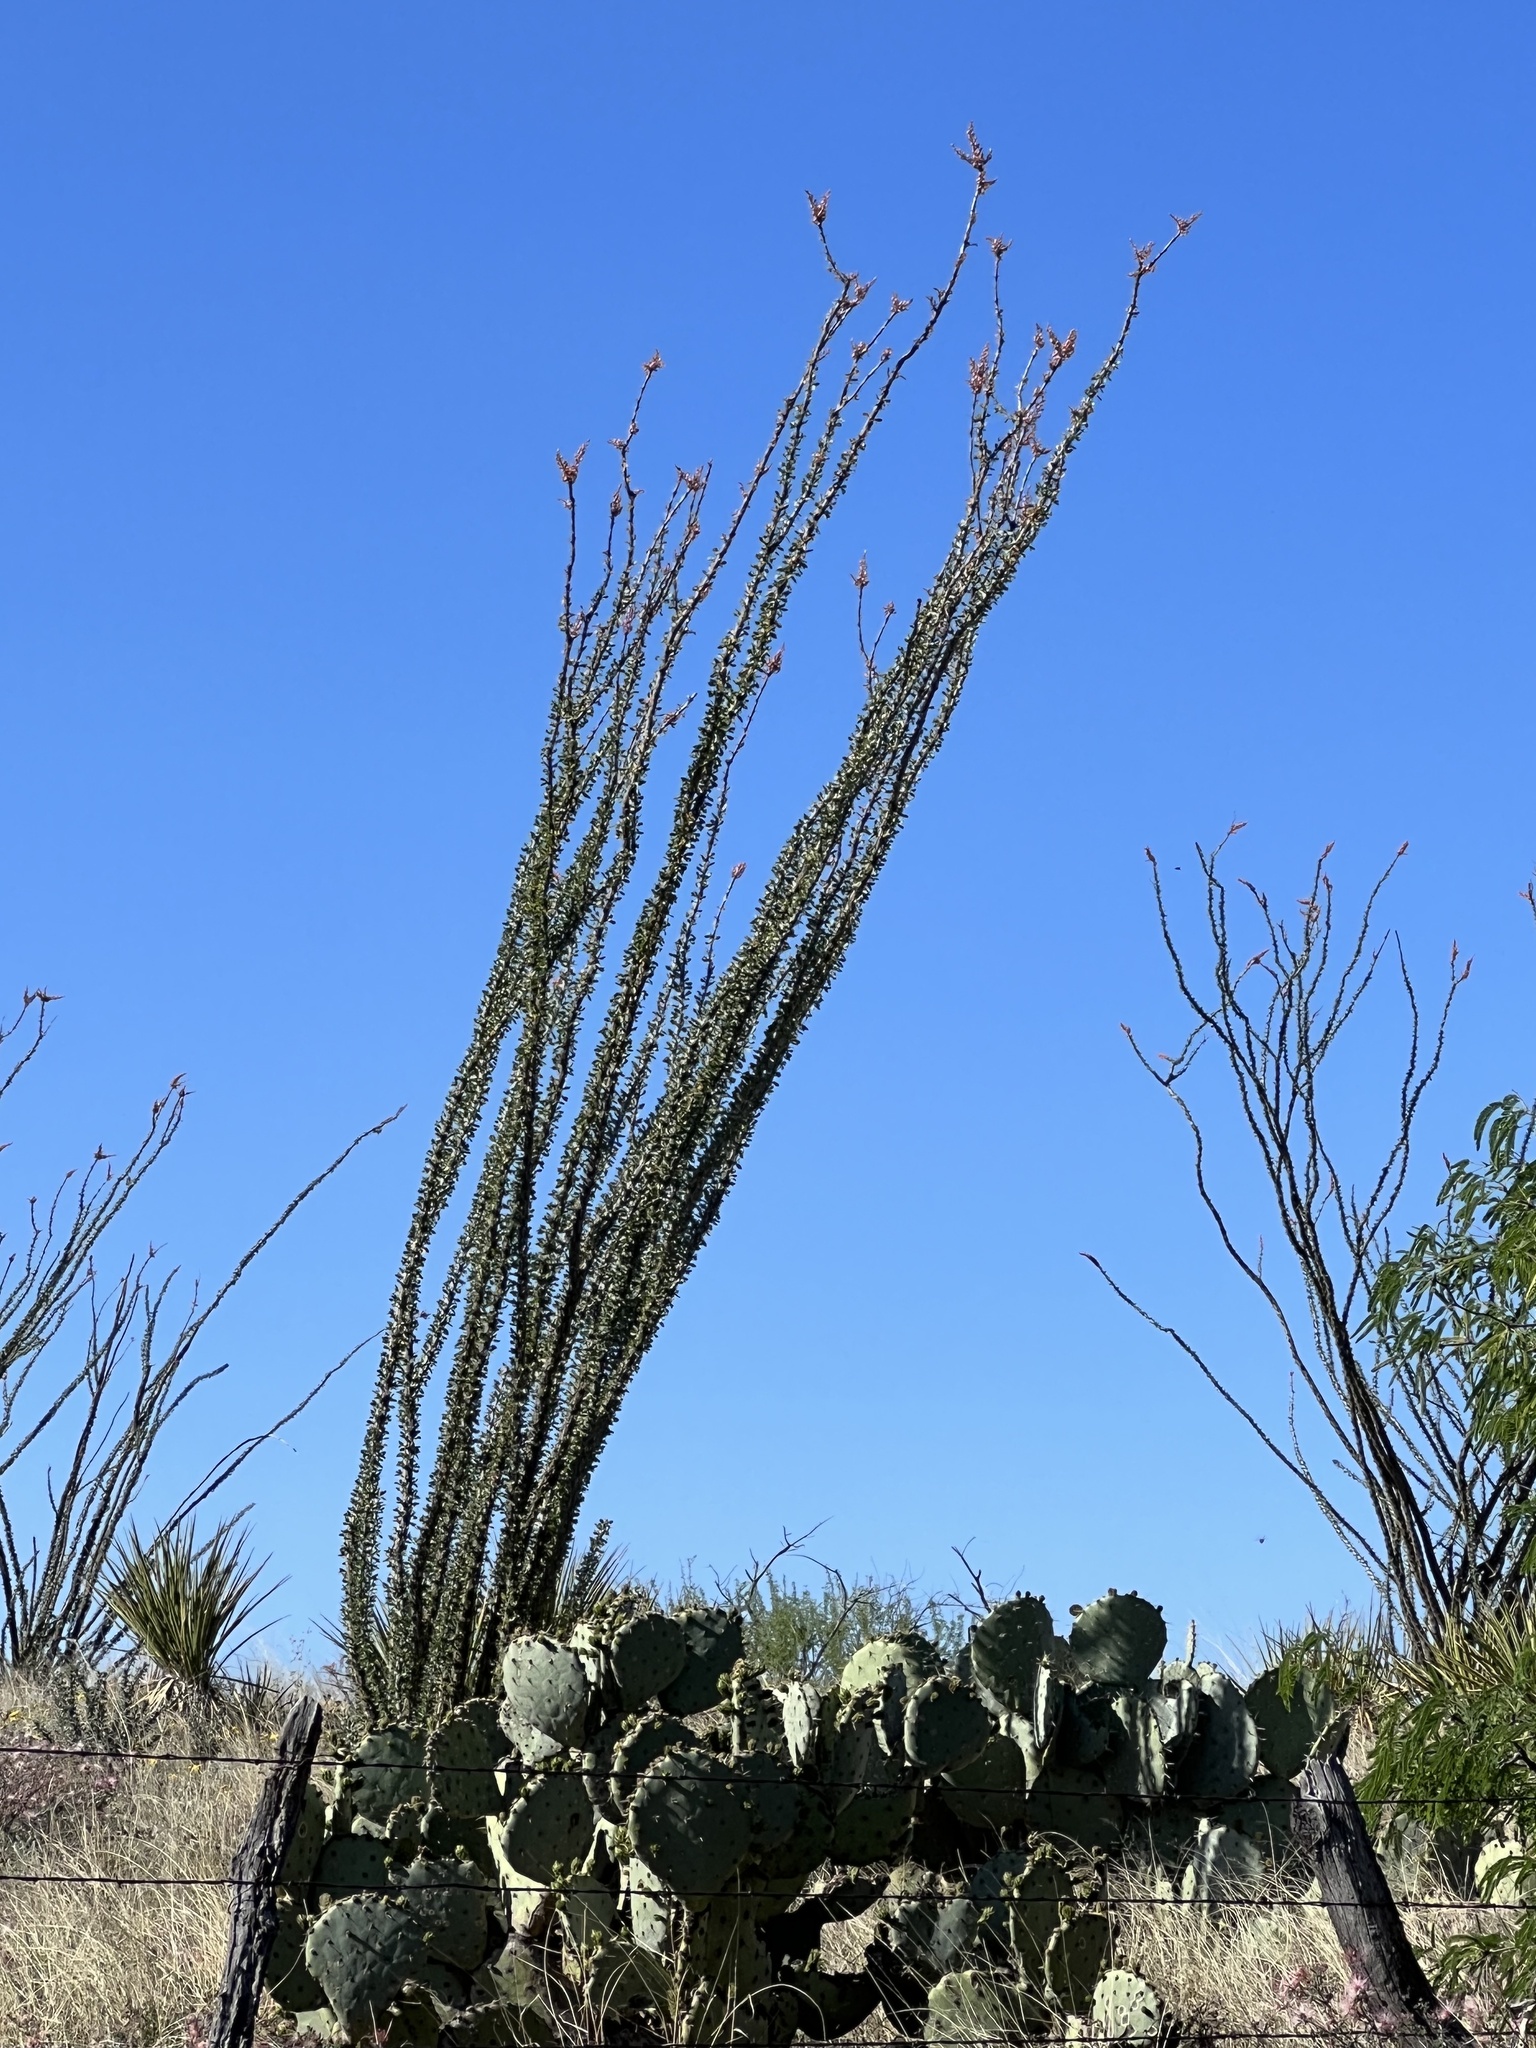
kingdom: Plantae
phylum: Tracheophyta
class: Magnoliopsida
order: Ericales
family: Fouquieriaceae
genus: Fouquieria
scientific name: Fouquieria splendens
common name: Vine-cactus
